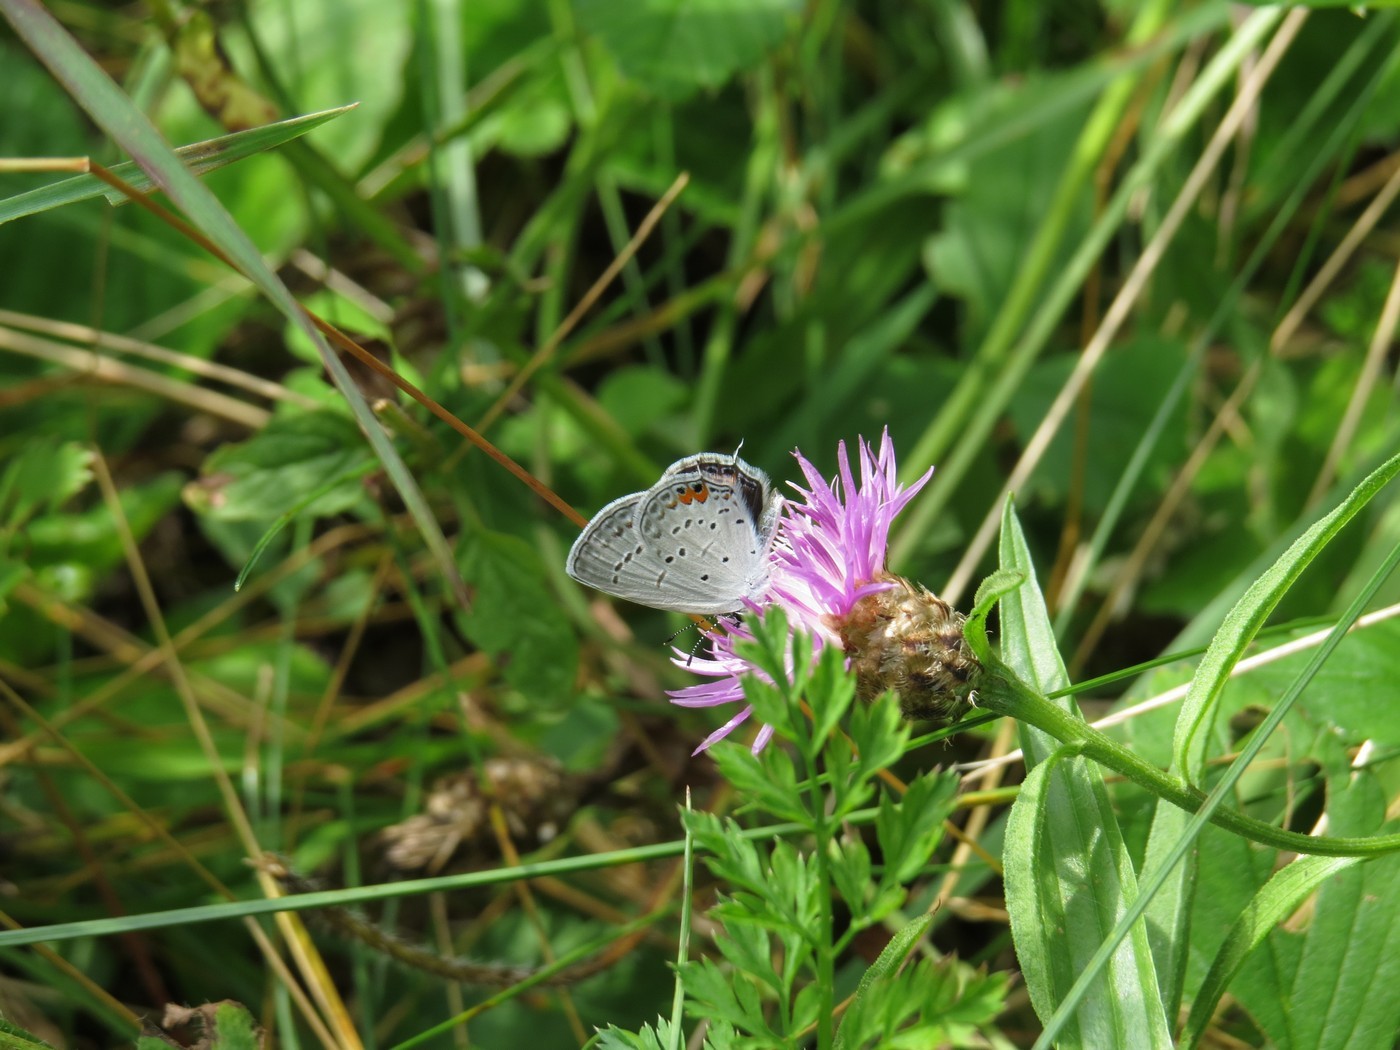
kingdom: Animalia
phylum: Arthropoda
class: Insecta
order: Lepidoptera
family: Lycaenidae
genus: Elkalyce
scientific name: Elkalyce comyntas
